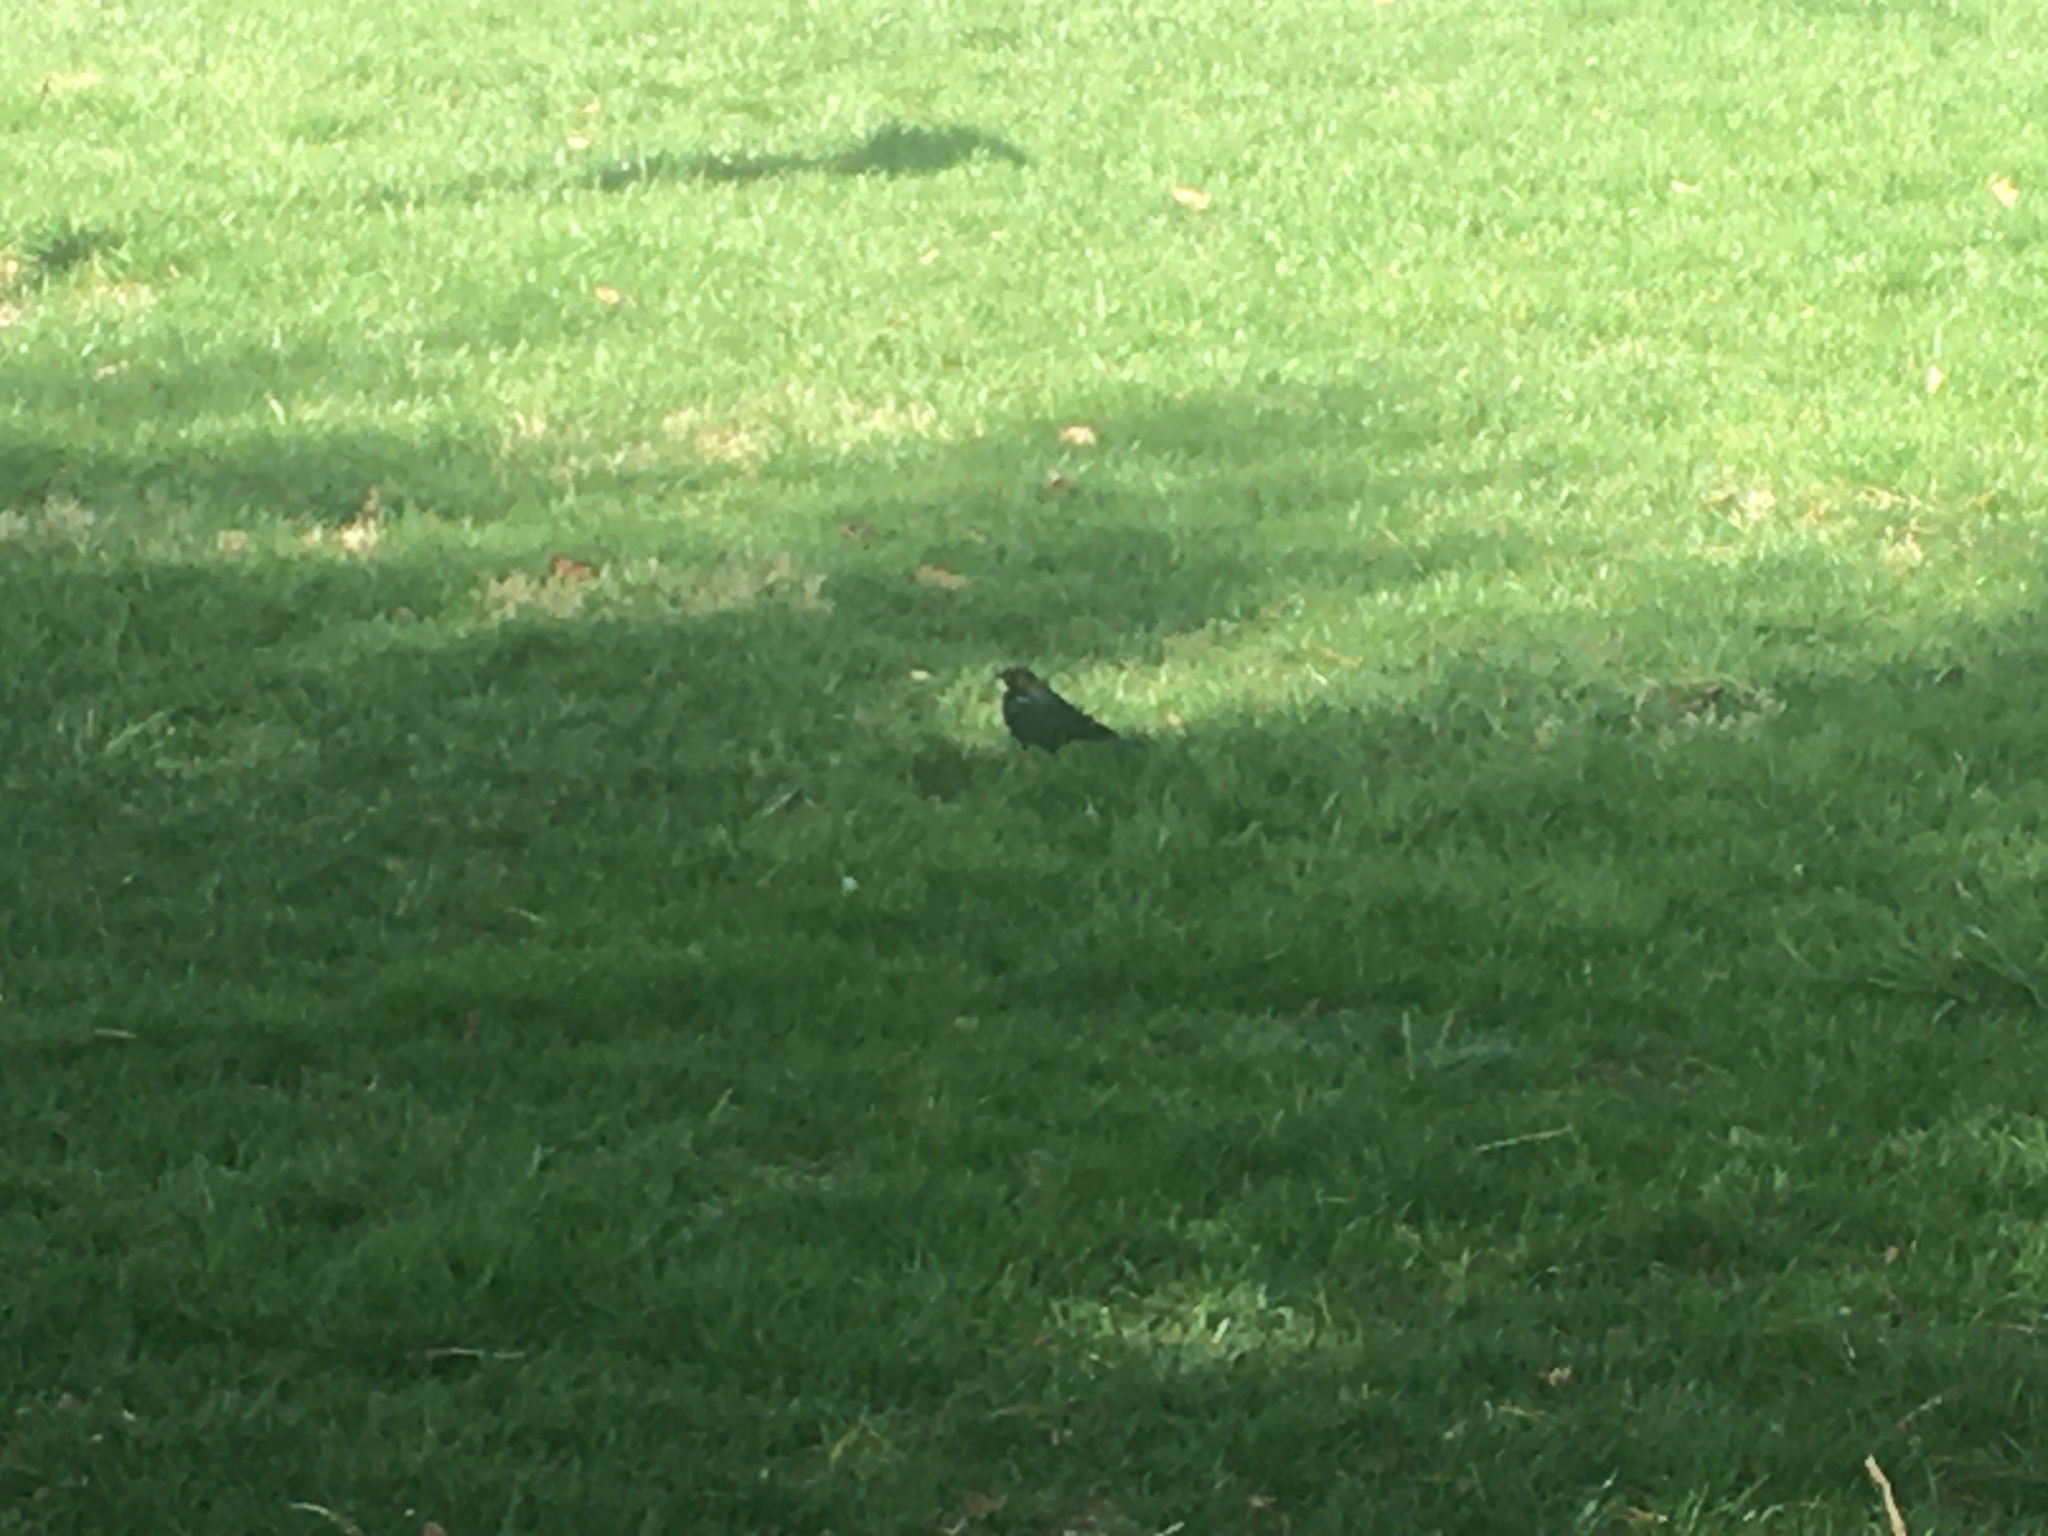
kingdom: Animalia
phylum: Chordata
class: Aves
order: Passeriformes
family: Icteridae
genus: Molothrus
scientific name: Molothrus ater
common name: Brown-headed cowbird
